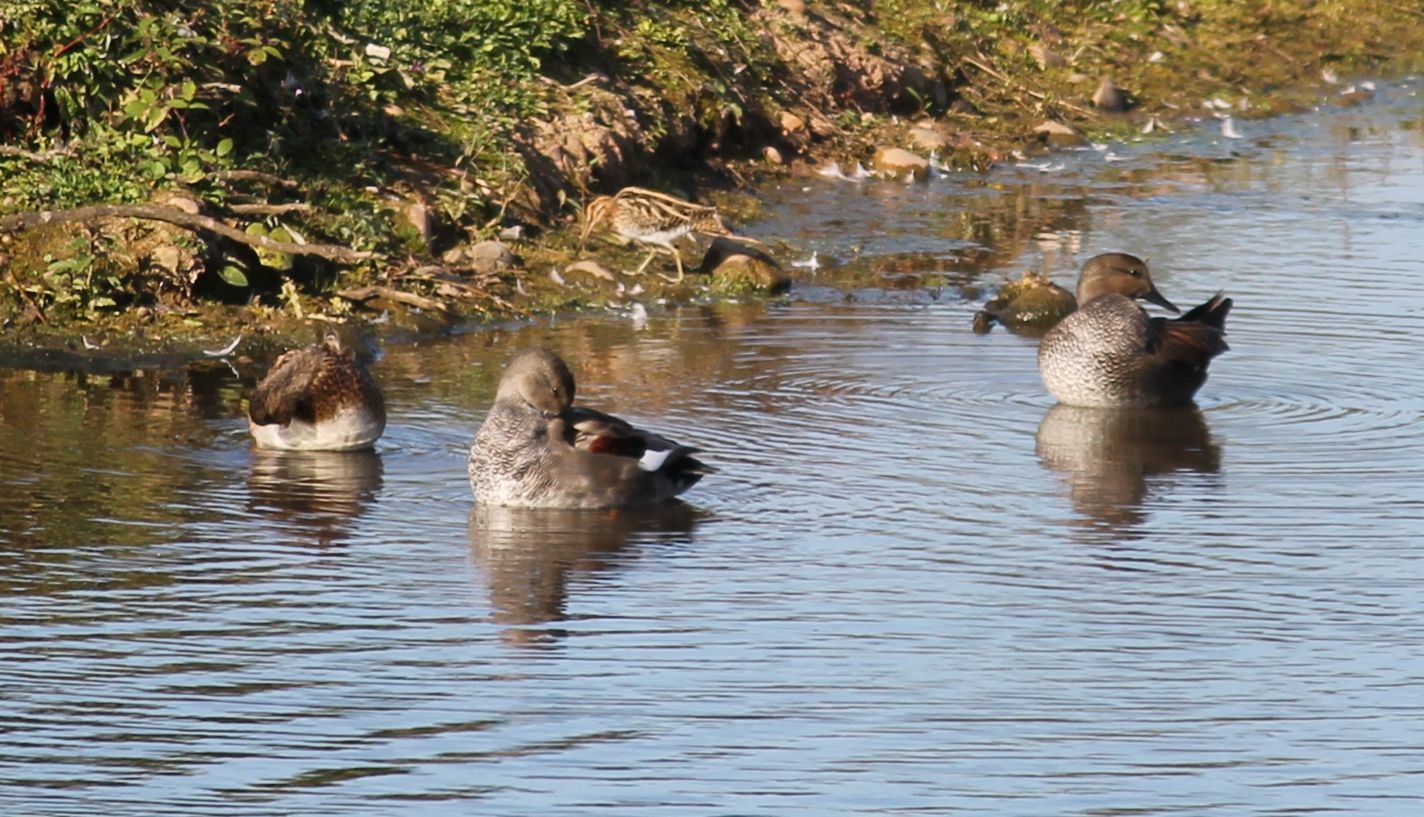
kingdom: Animalia
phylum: Chordata
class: Aves
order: Charadriiformes
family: Scolopacidae
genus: Gallinago
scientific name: Gallinago gallinago
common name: Common snipe
